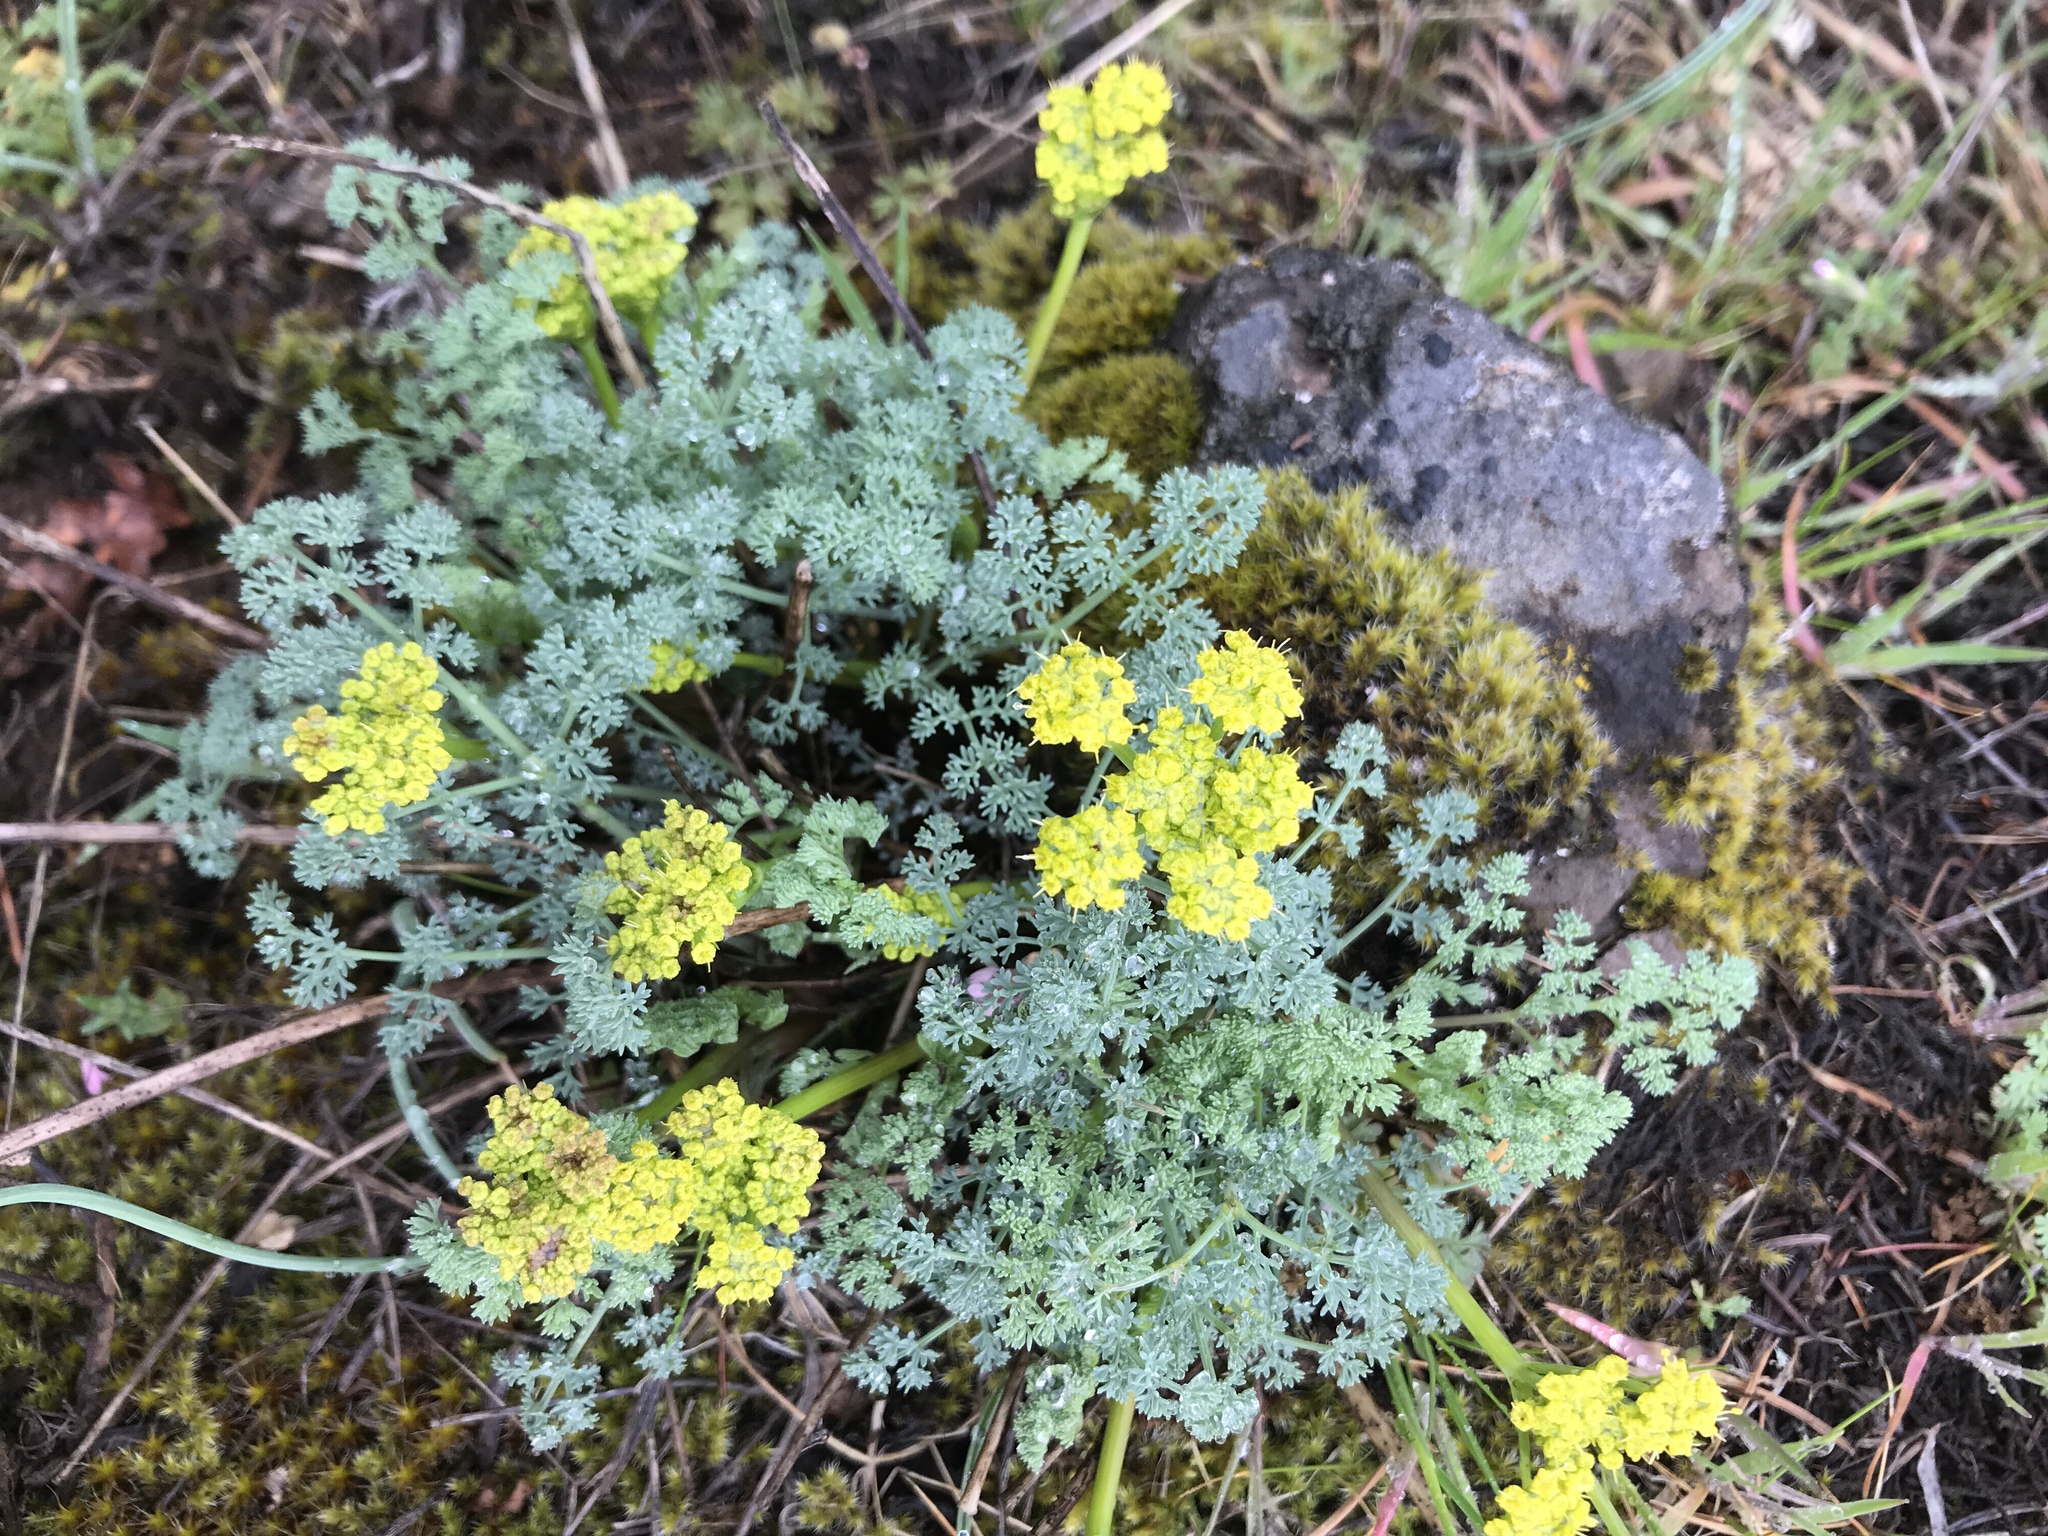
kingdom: Plantae
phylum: Tracheophyta
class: Magnoliopsida
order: Apiales
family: Apiaceae
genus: Lomatium
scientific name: Lomatium papilioniferum
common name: Butterfly lomatium
